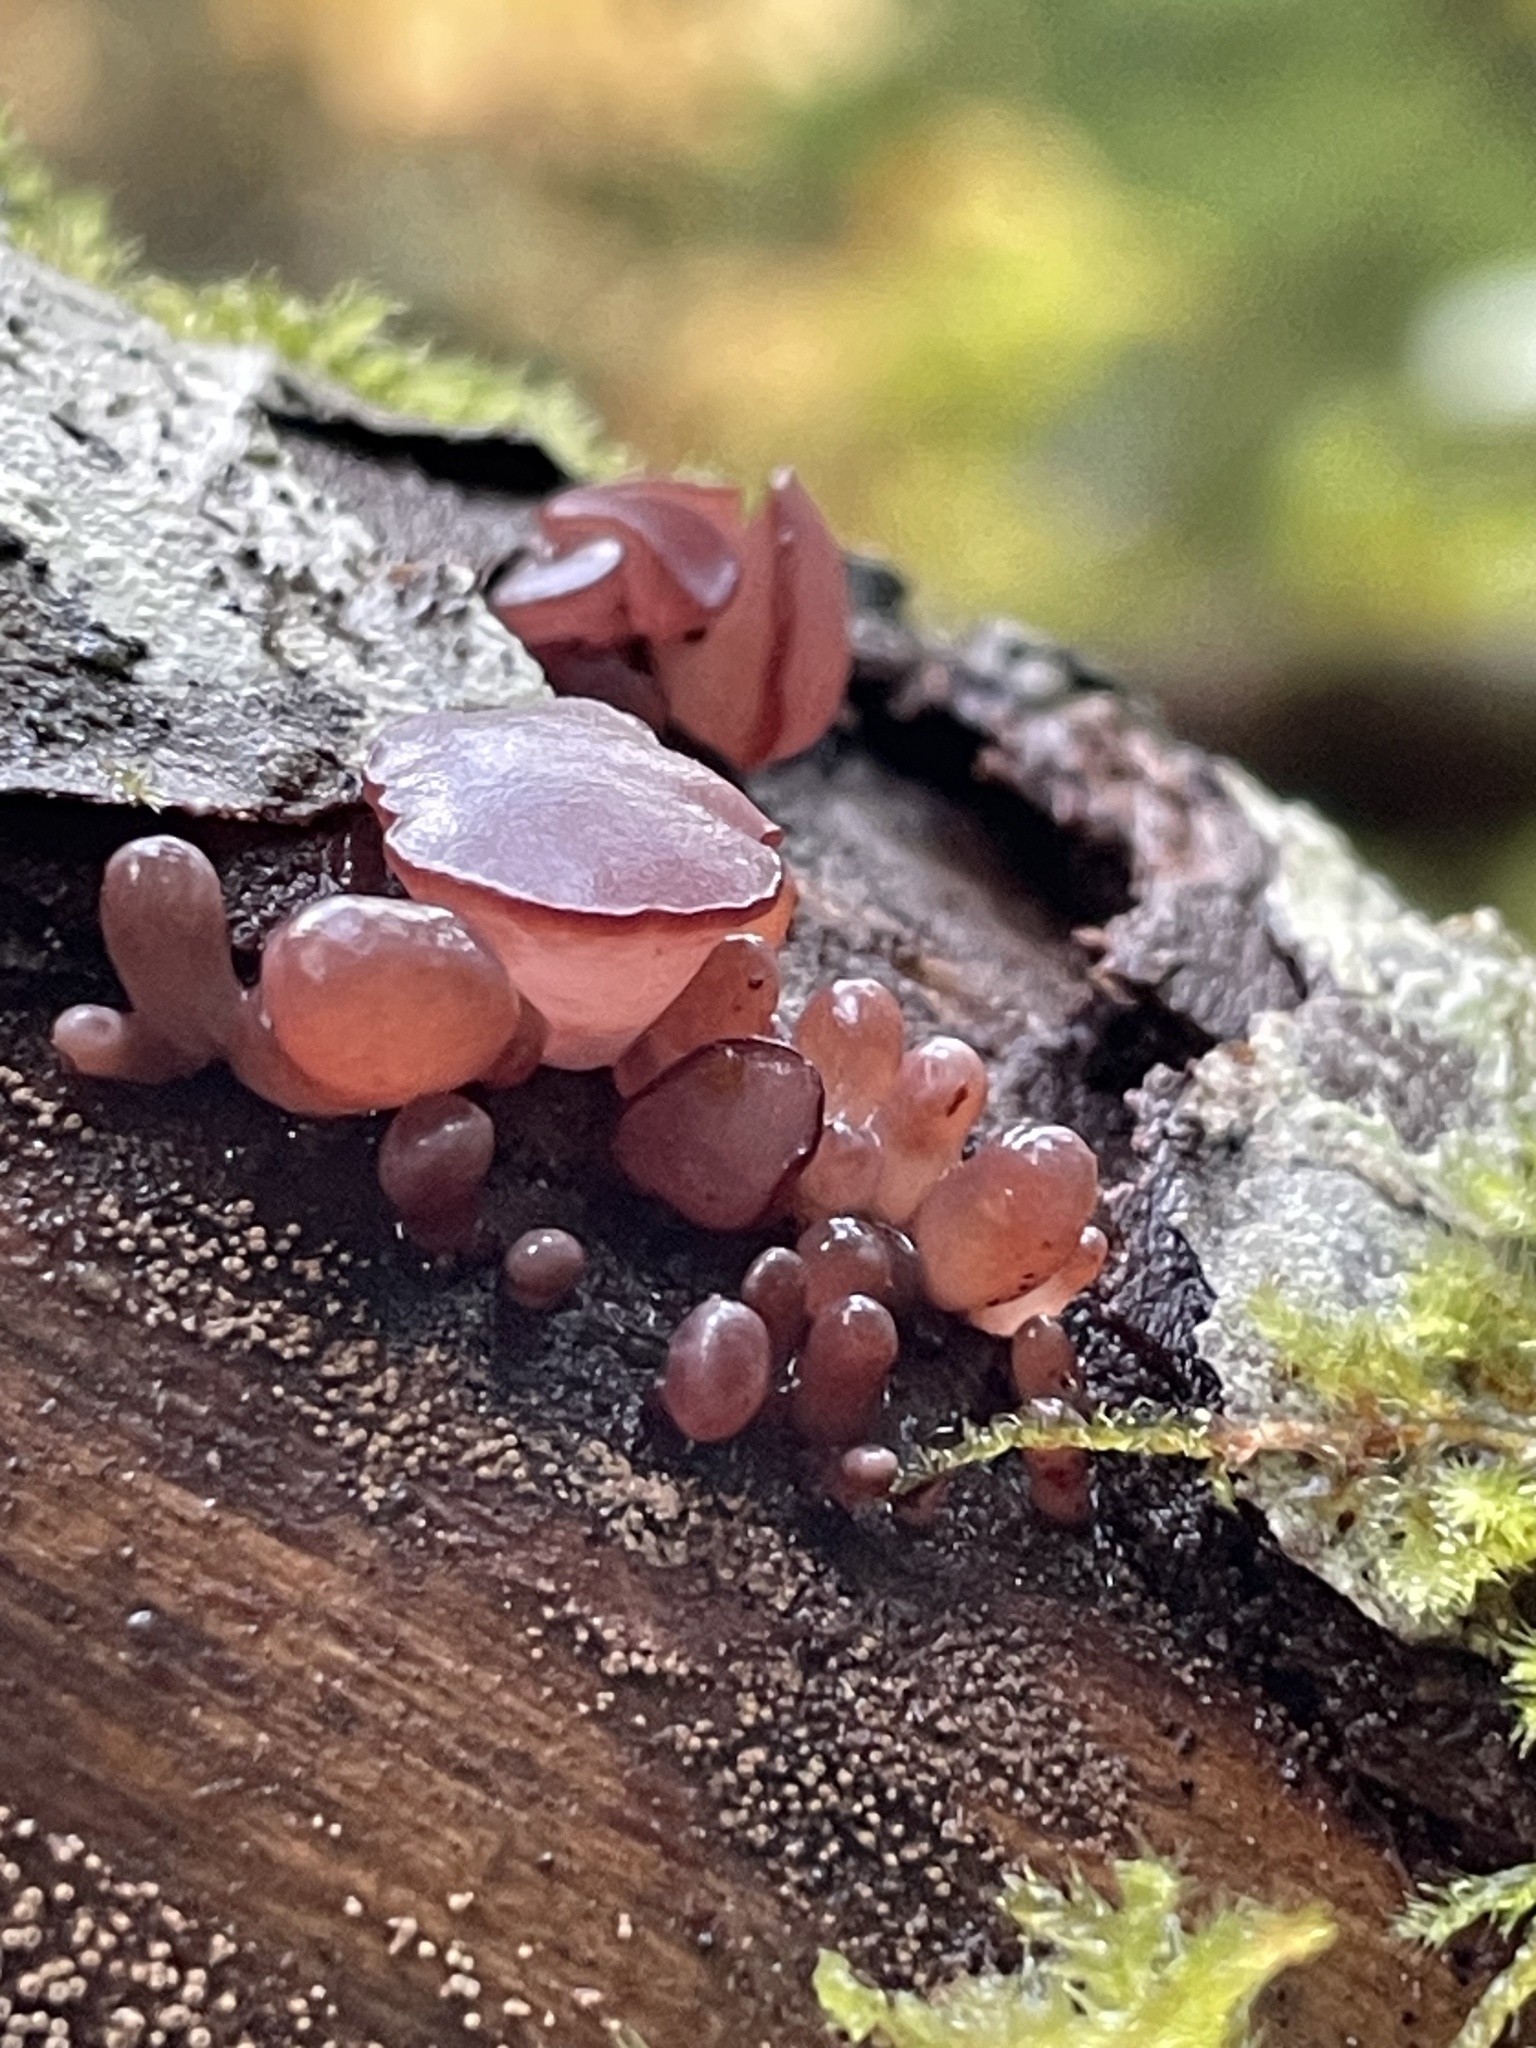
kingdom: Fungi
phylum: Ascomycota
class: Leotiomycetes
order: Helotiales
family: Gelatinodiscaceae
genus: Ascocoryne
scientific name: Ascocoryne sarcoides
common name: Purple jellydisc
